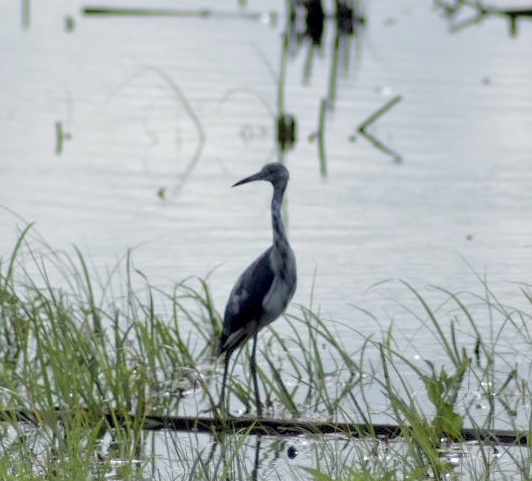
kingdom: Animalia
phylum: Chordata
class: Aves
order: Pelecaniformes
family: Ardeidae
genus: Egretta
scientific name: Egretta caerulea
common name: Little blue heron
